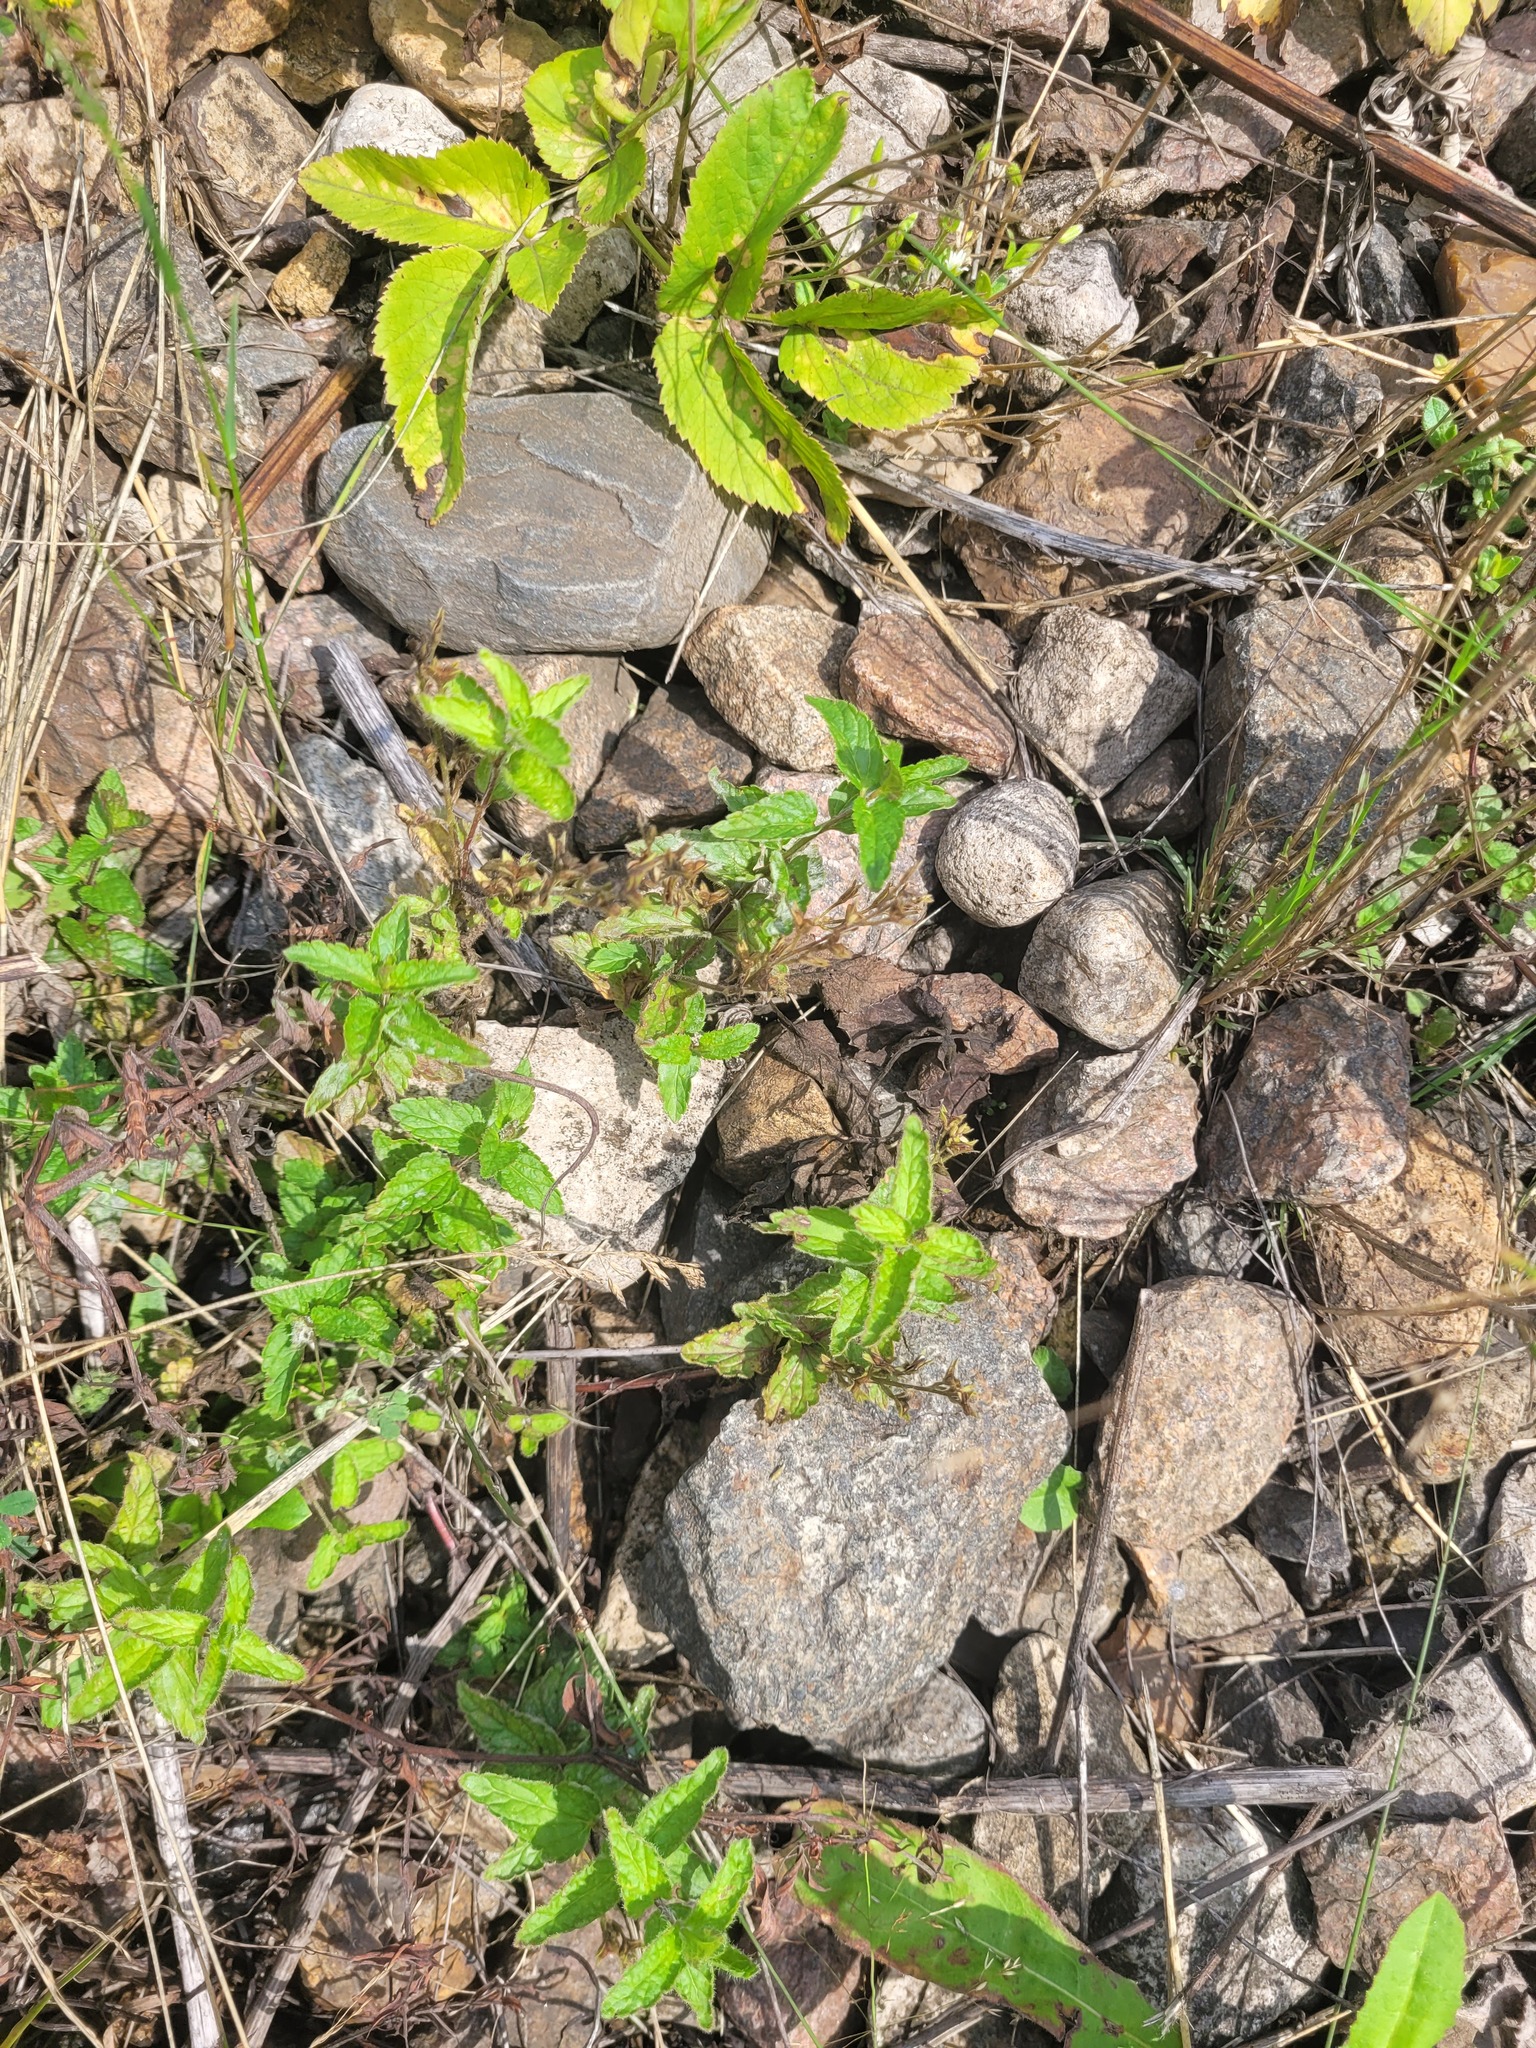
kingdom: Plantae
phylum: Tracheophyta
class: Magnoliopsida
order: Lamiales
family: Plantaginaceae
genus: Veronica
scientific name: Veronica chamaedrys
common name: Germander speedwell
